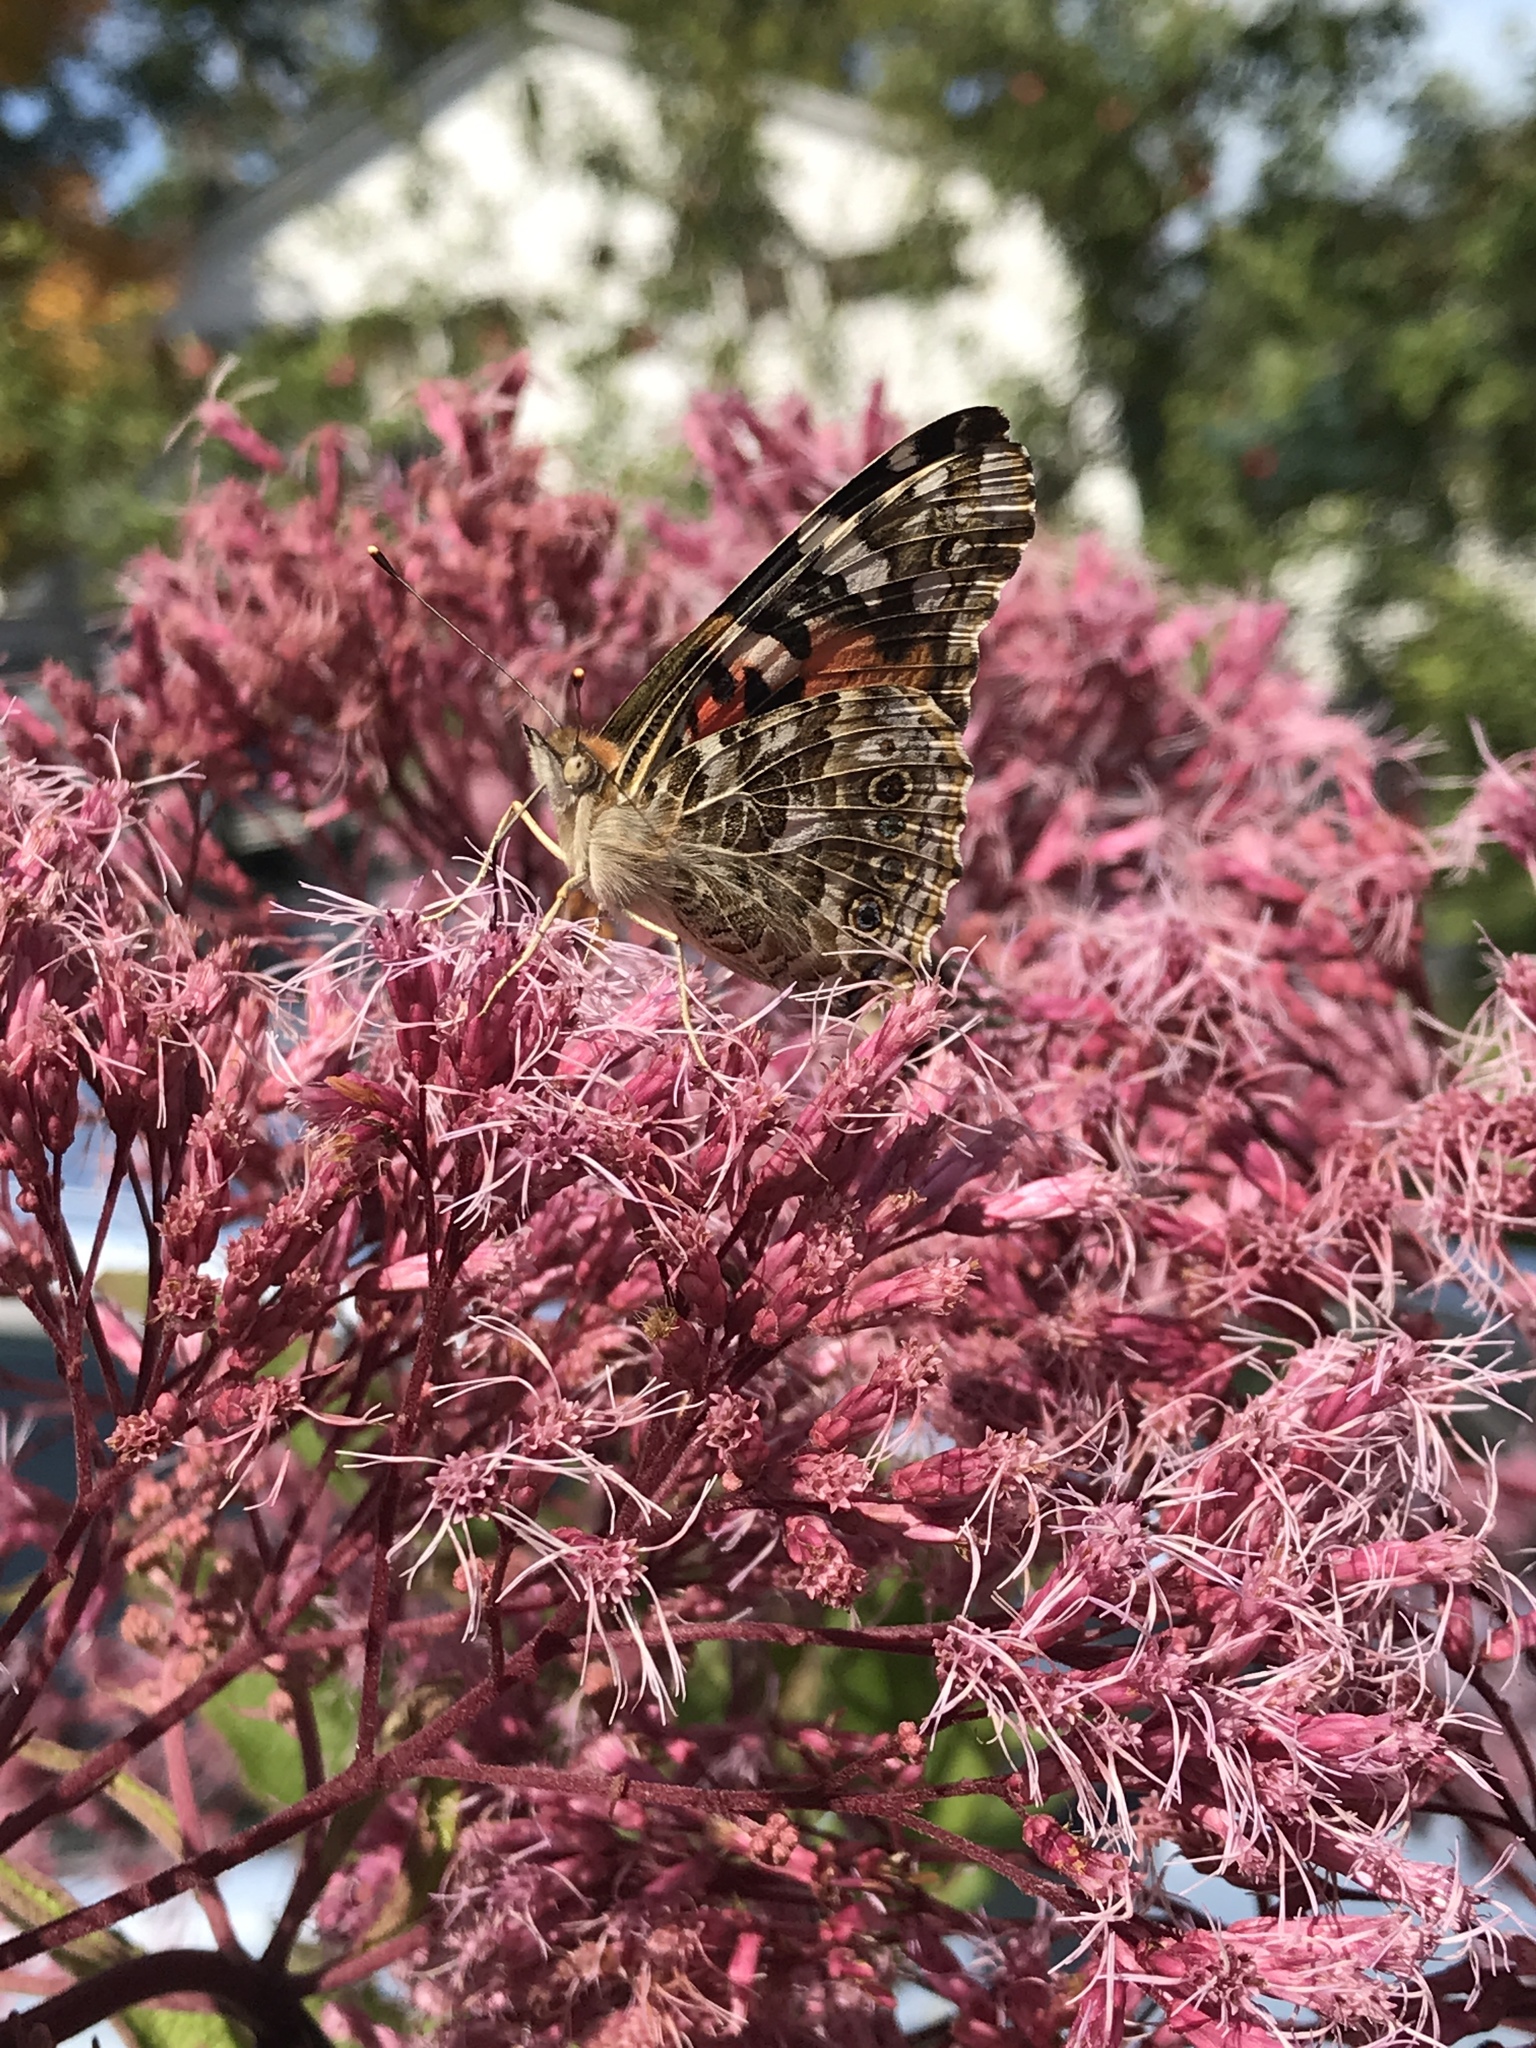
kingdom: Animalia
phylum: Arthropoda
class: Insecta
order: Lepidoptera
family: Nymphalidae
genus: Vanessa
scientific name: Vanessa cardui
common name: Painted lady
